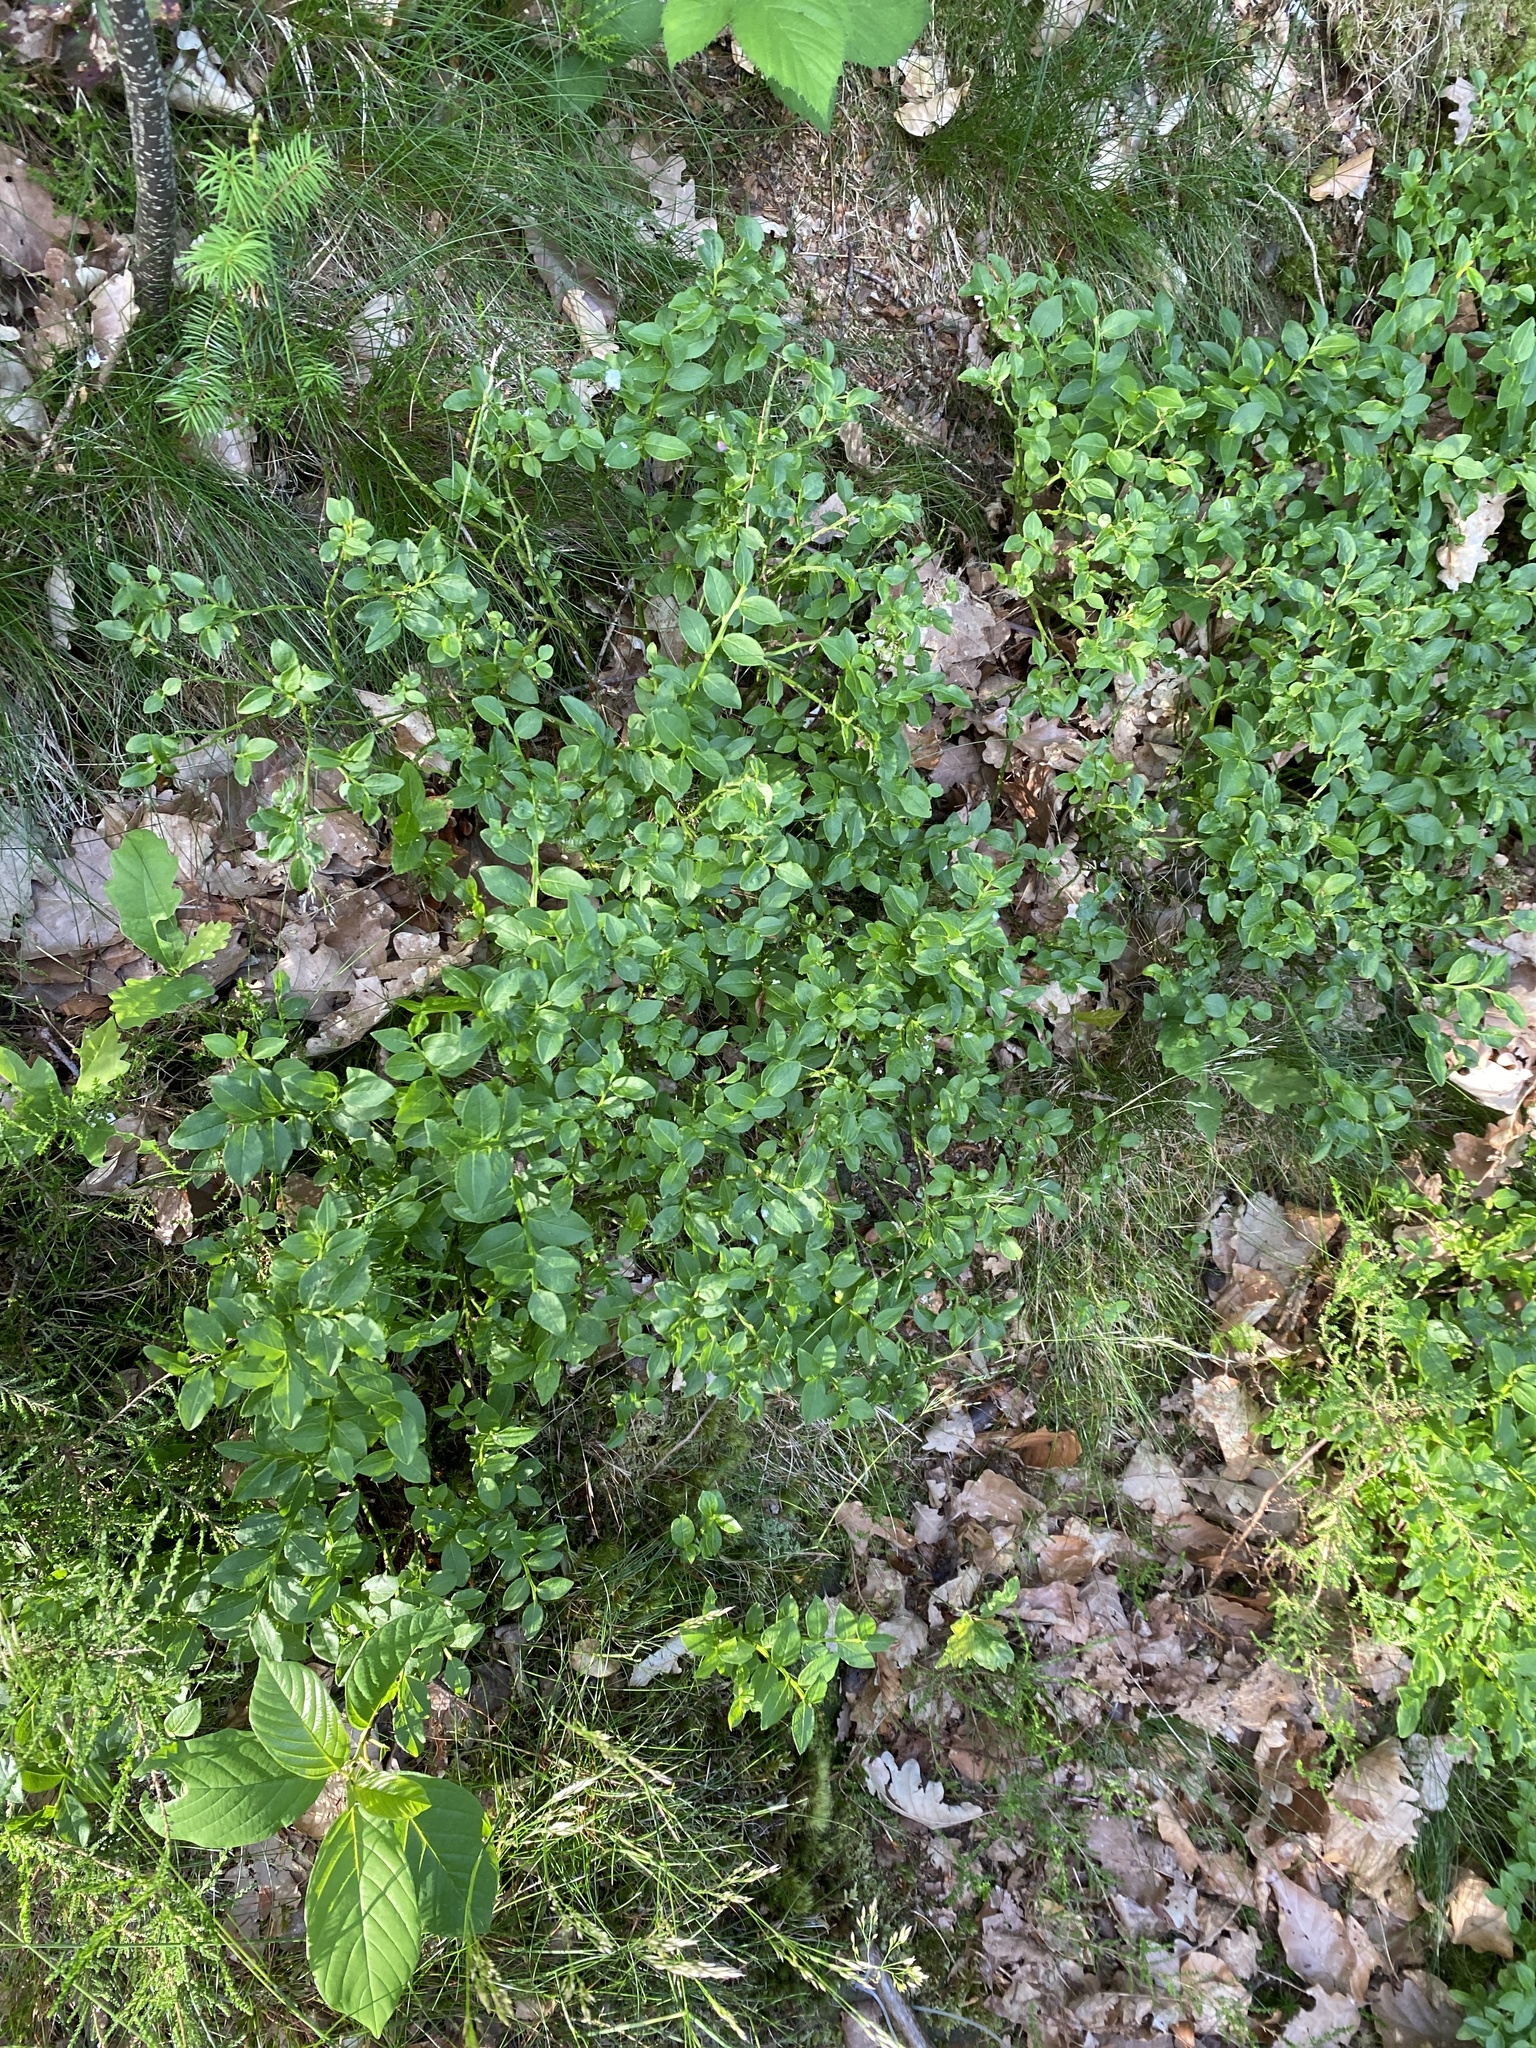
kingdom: Plantae
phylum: Tracheophyta
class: Magnoliopsida
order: Ericales
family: Ericaceae
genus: Vaccinium
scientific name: Vaccinium myrtillus
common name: Bilberry
